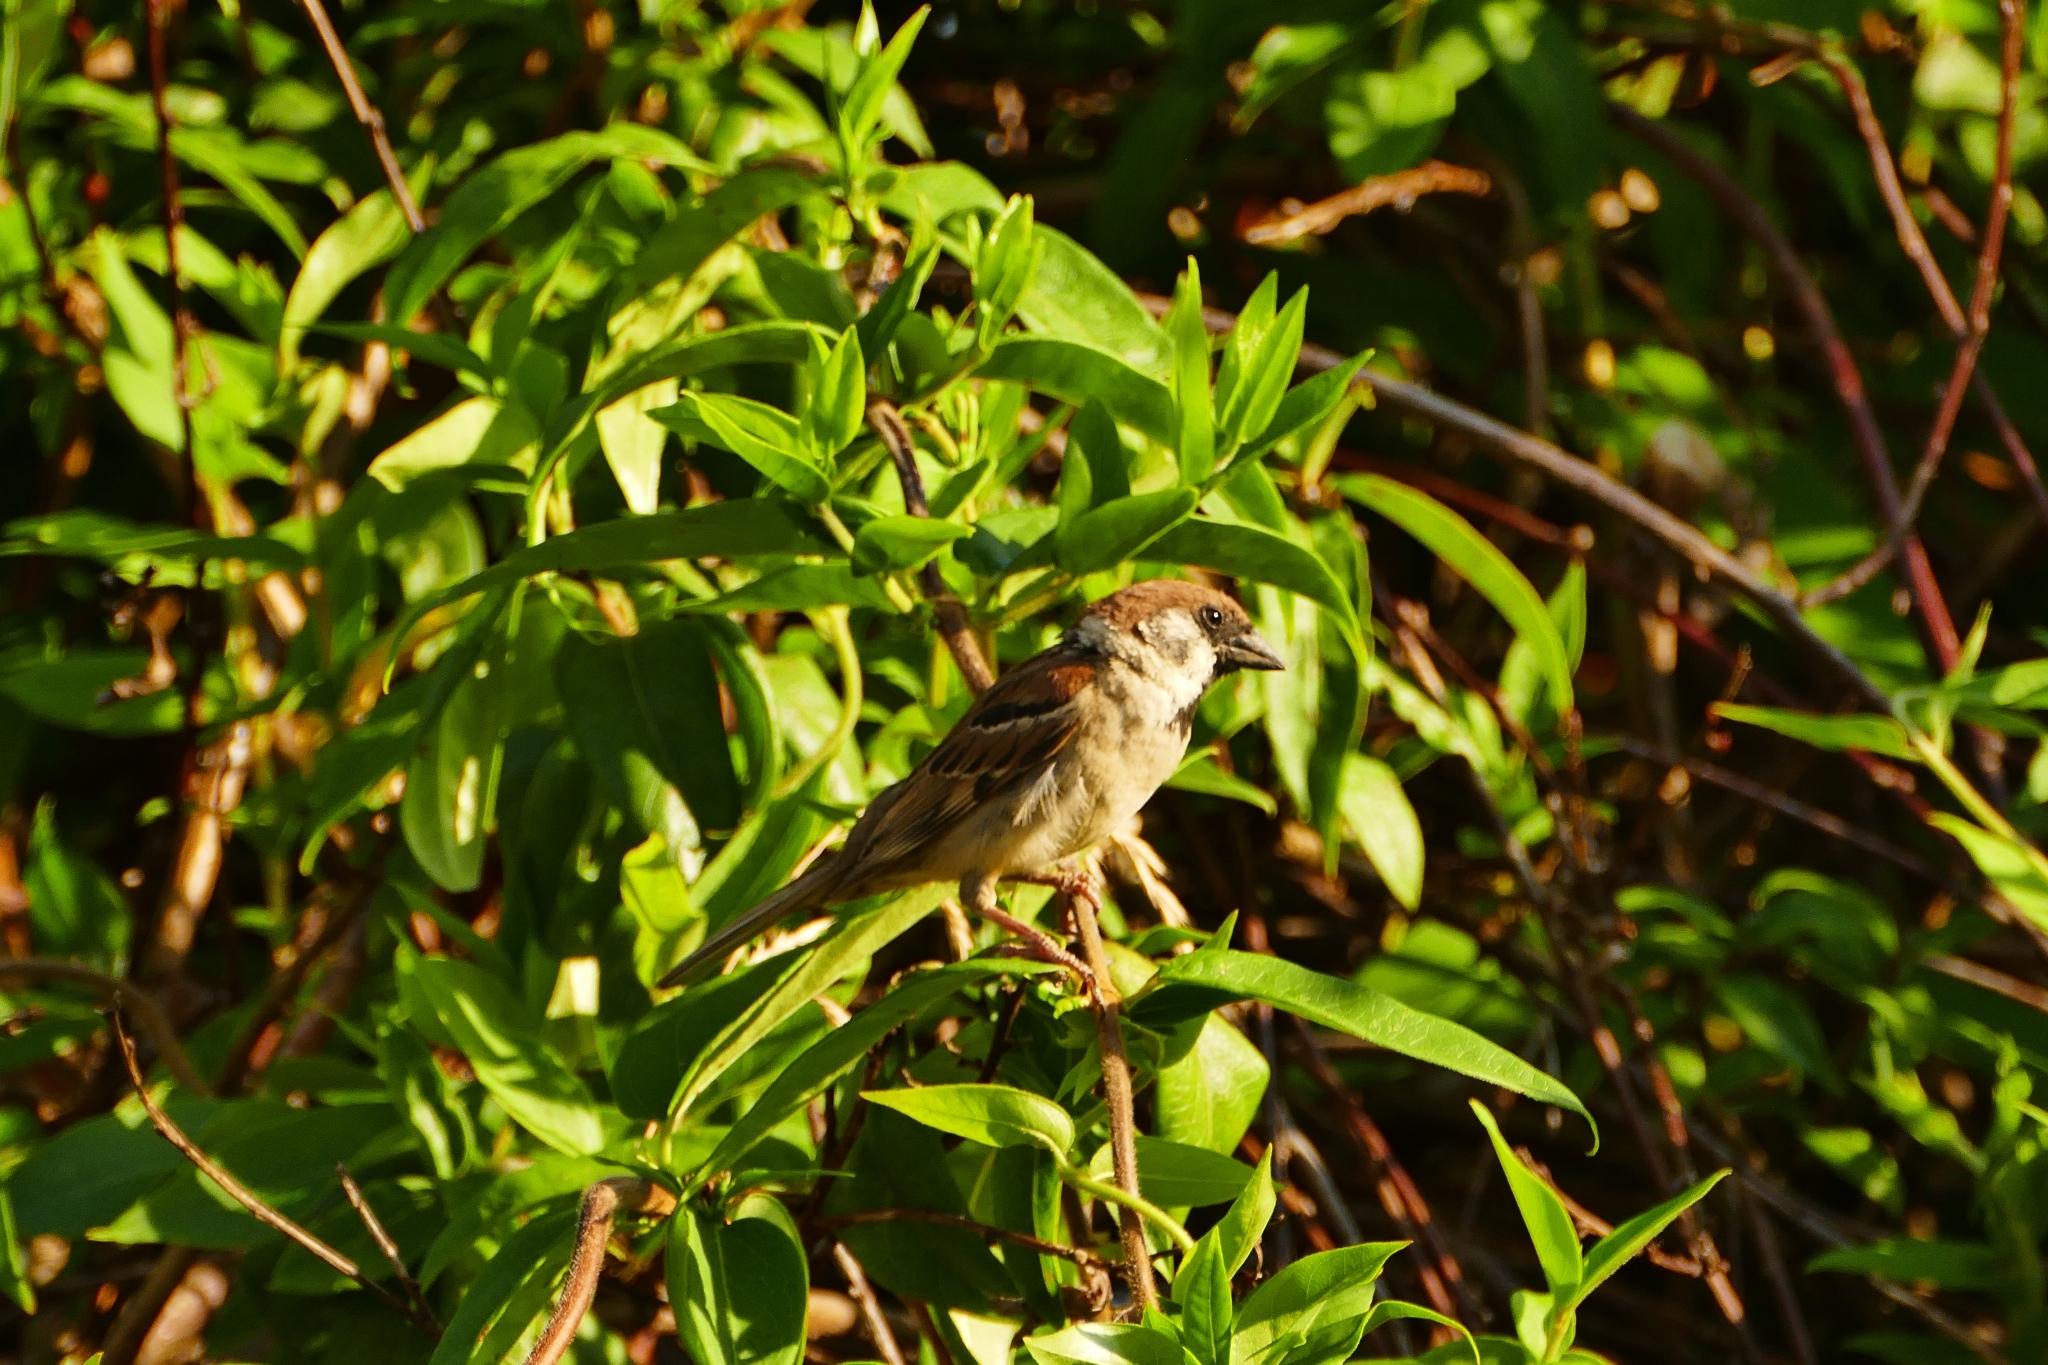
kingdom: Animalia
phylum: Chordata
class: Aves
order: Passeriformes
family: Passeridae
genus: Passer
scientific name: Passer montanus
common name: Eurasian tree sparrow
